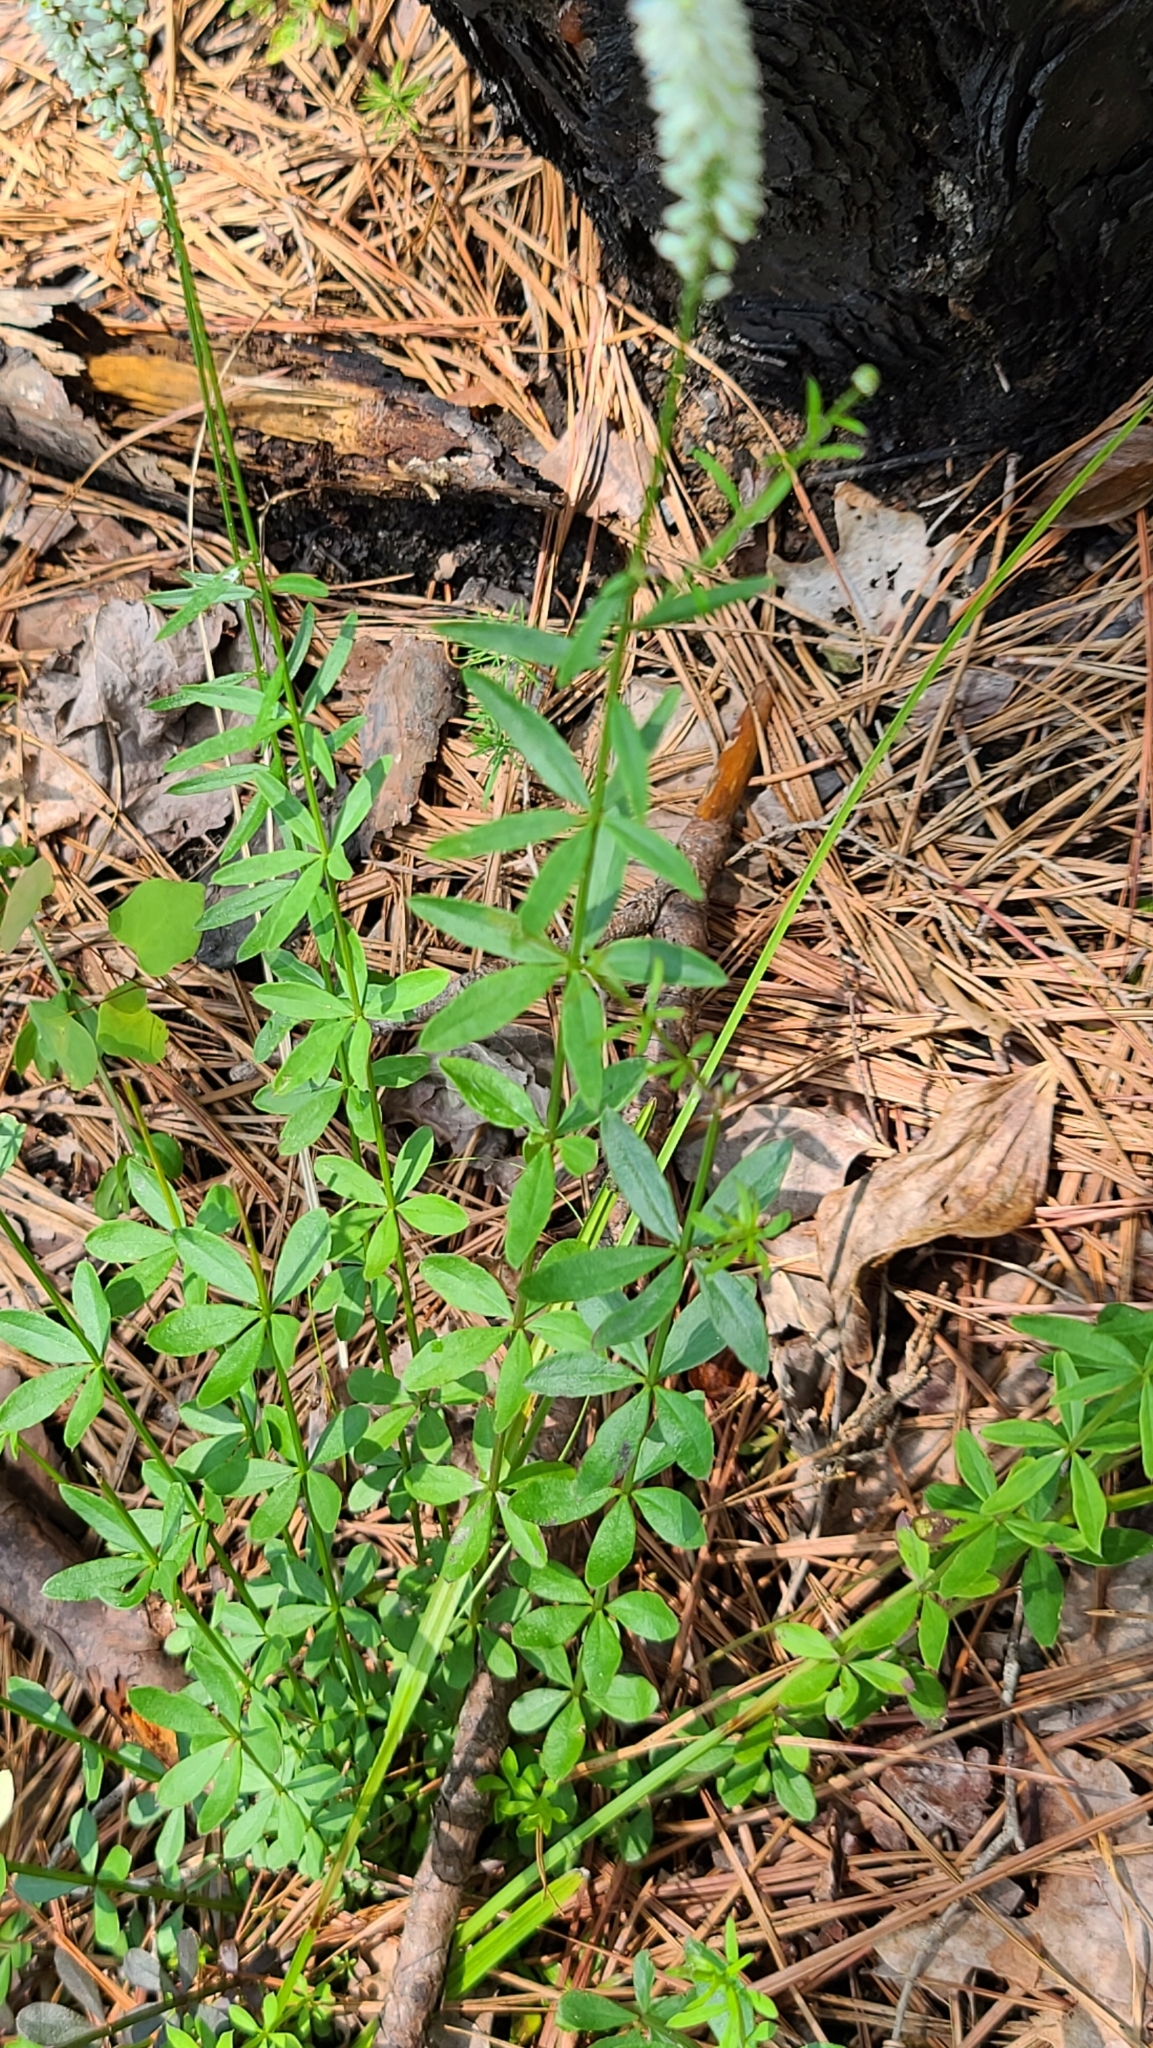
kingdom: Plantae
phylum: Tracheophyta
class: Magnoliopsida
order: Fabales
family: Polygalaceae
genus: Polygala
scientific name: Polygala boykinii
